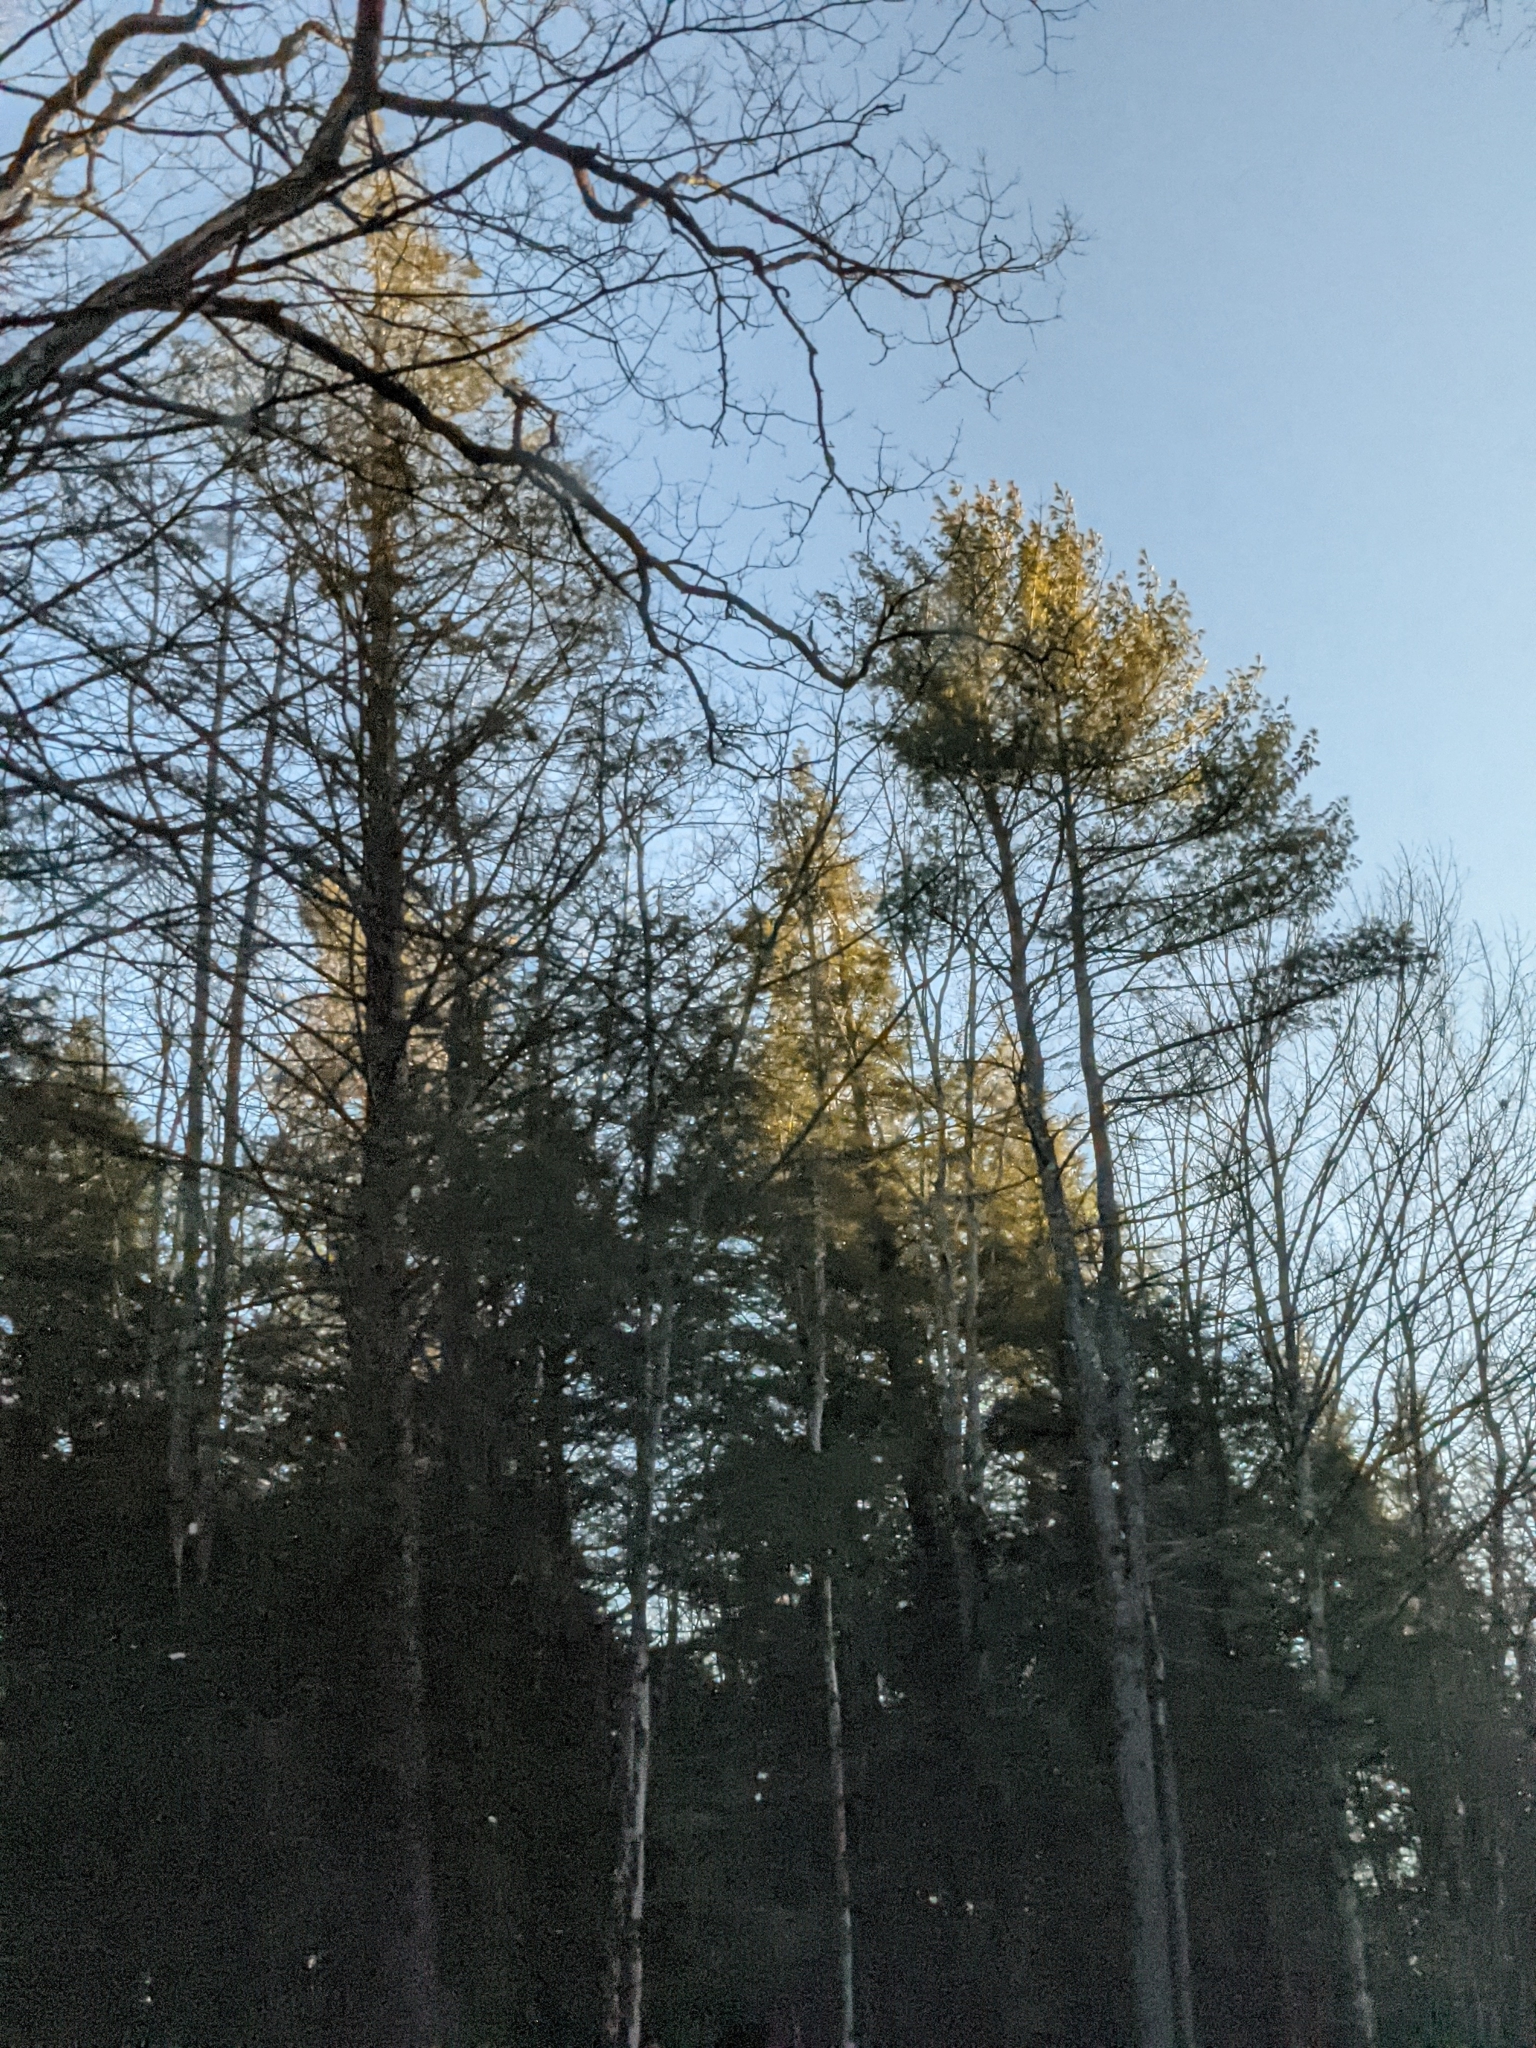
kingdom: Plantae
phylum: Tracheophyta
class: Pinopsida
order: Pinales
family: Pinaceae
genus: Pinus
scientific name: Pinus strobus
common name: Weymouth pine
